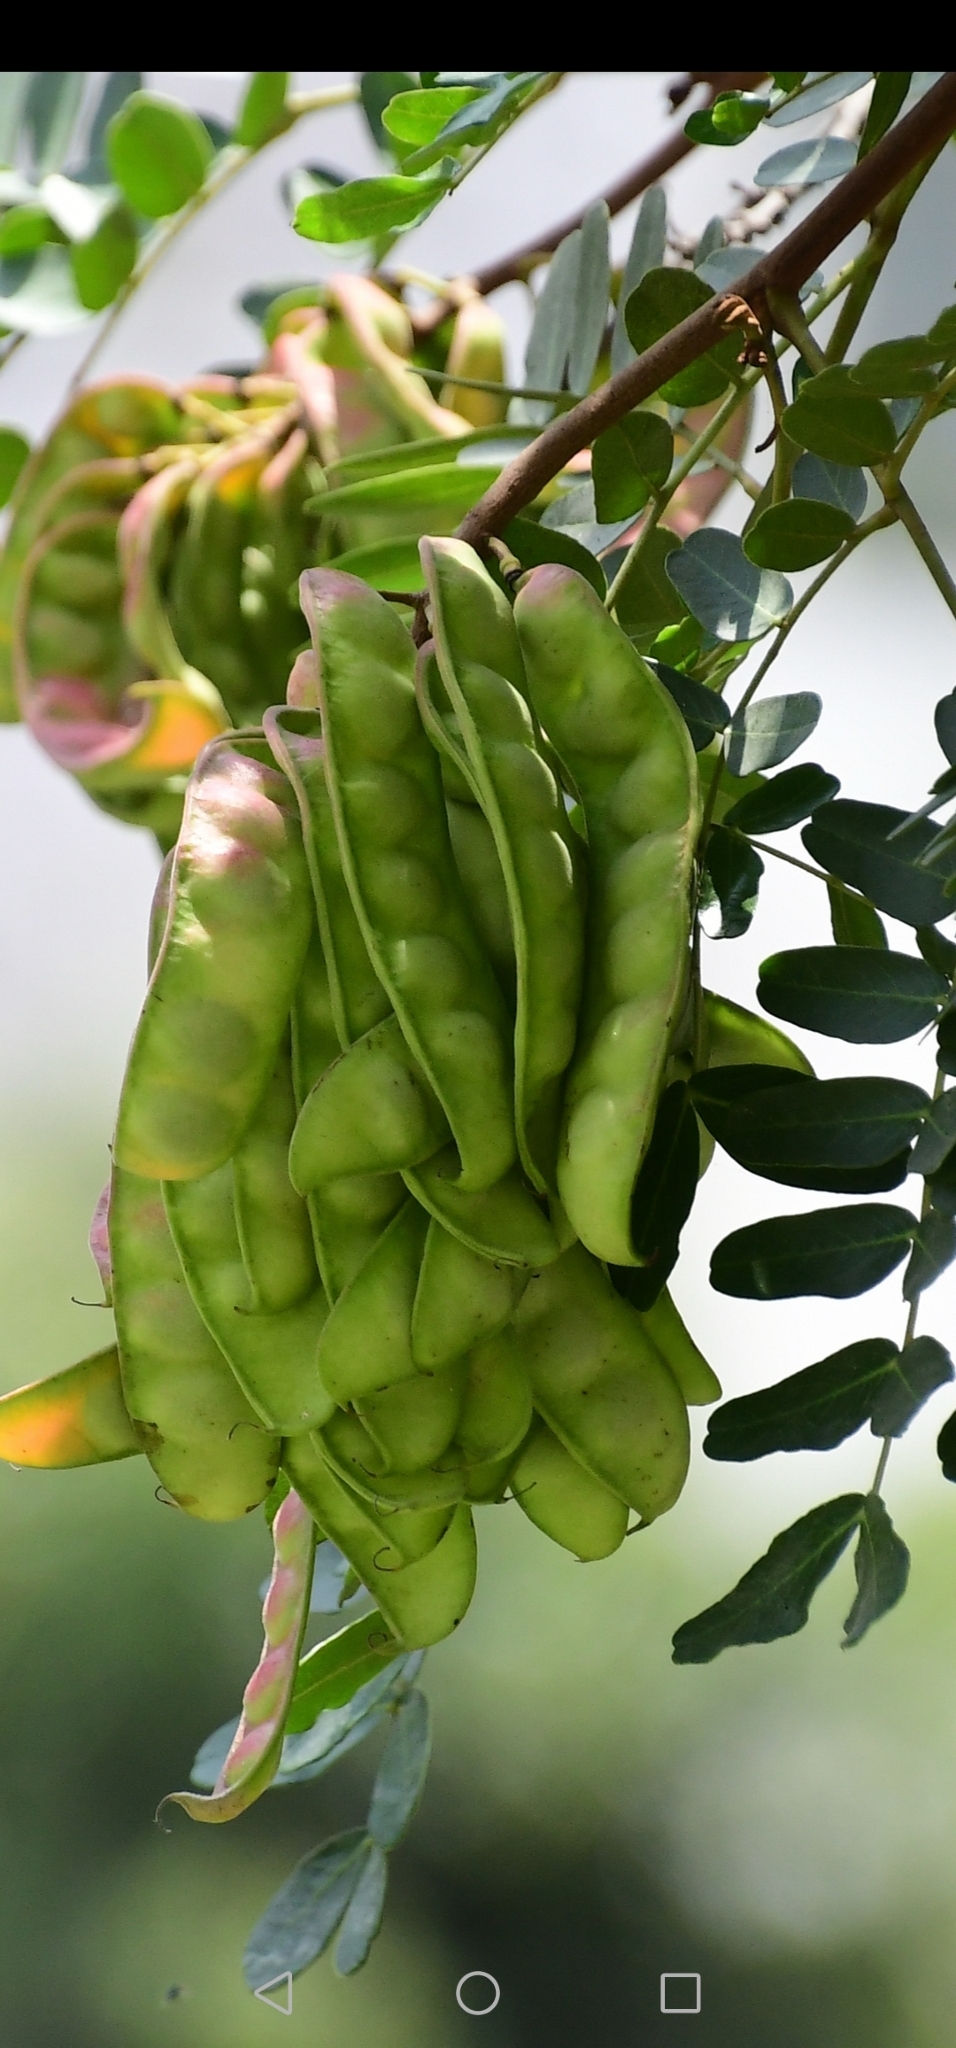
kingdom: Plantae
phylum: Tracheophyta
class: Magnoliopsida
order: Fabales
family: Fabaceae
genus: Tara
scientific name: Tara spinosa
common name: Spiny holdback
